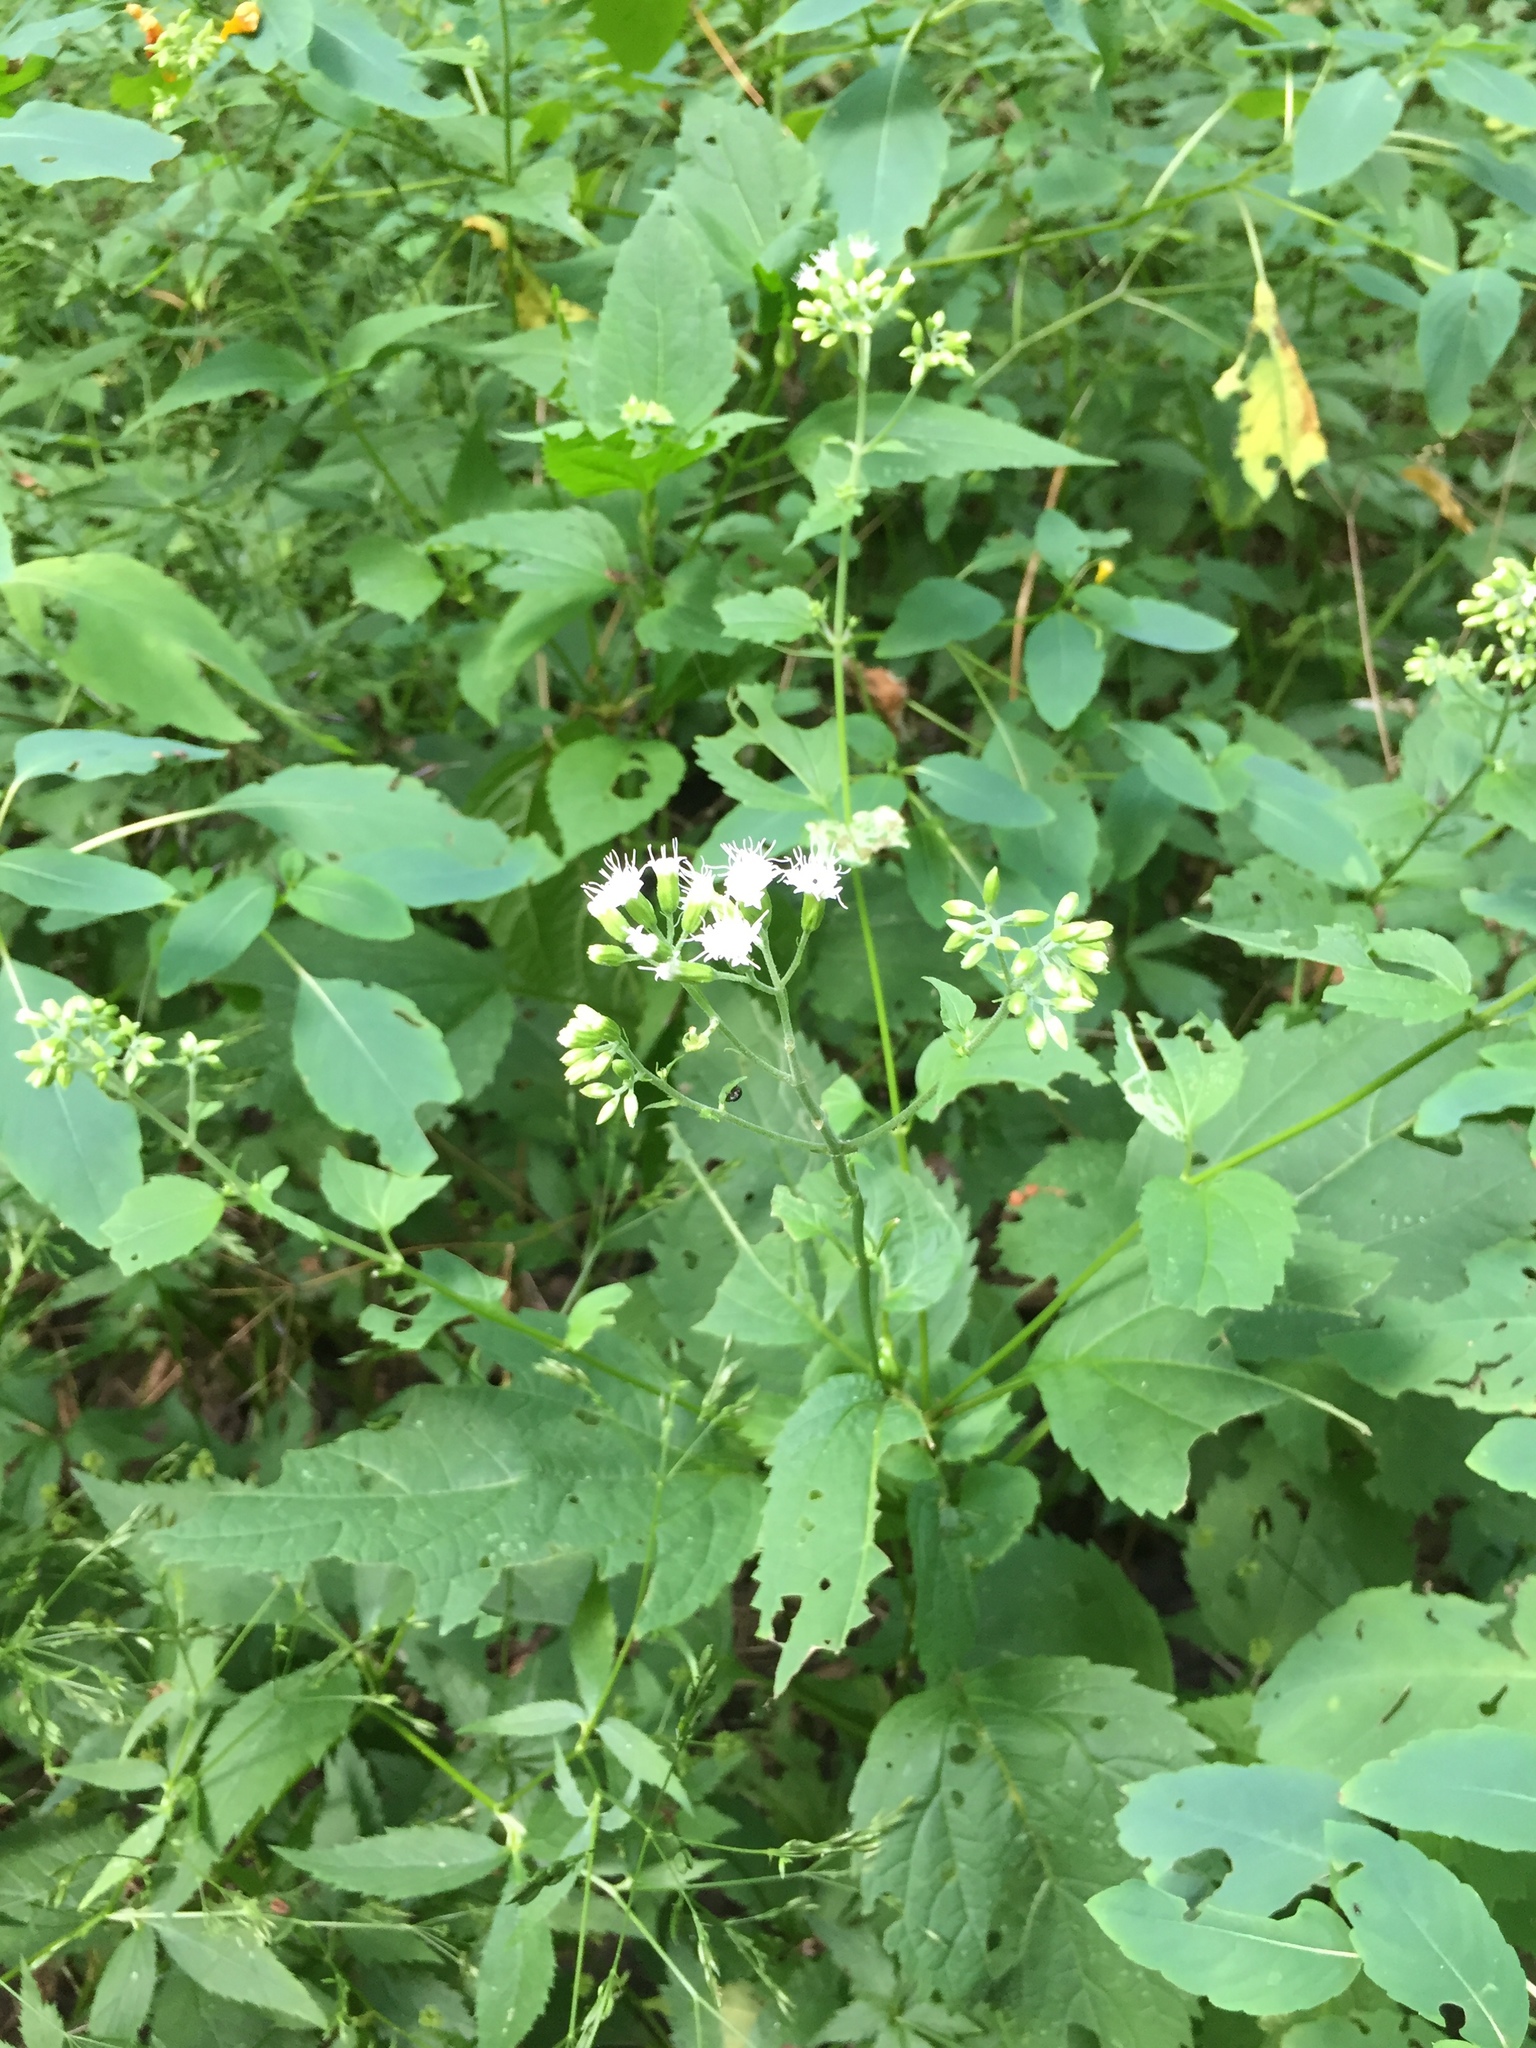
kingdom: Plantae
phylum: Tracheophyta
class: Magnoliopsida
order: Asterales
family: Asteraceae
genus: Ageratina
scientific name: Ageratina altissima
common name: White snakeroot
